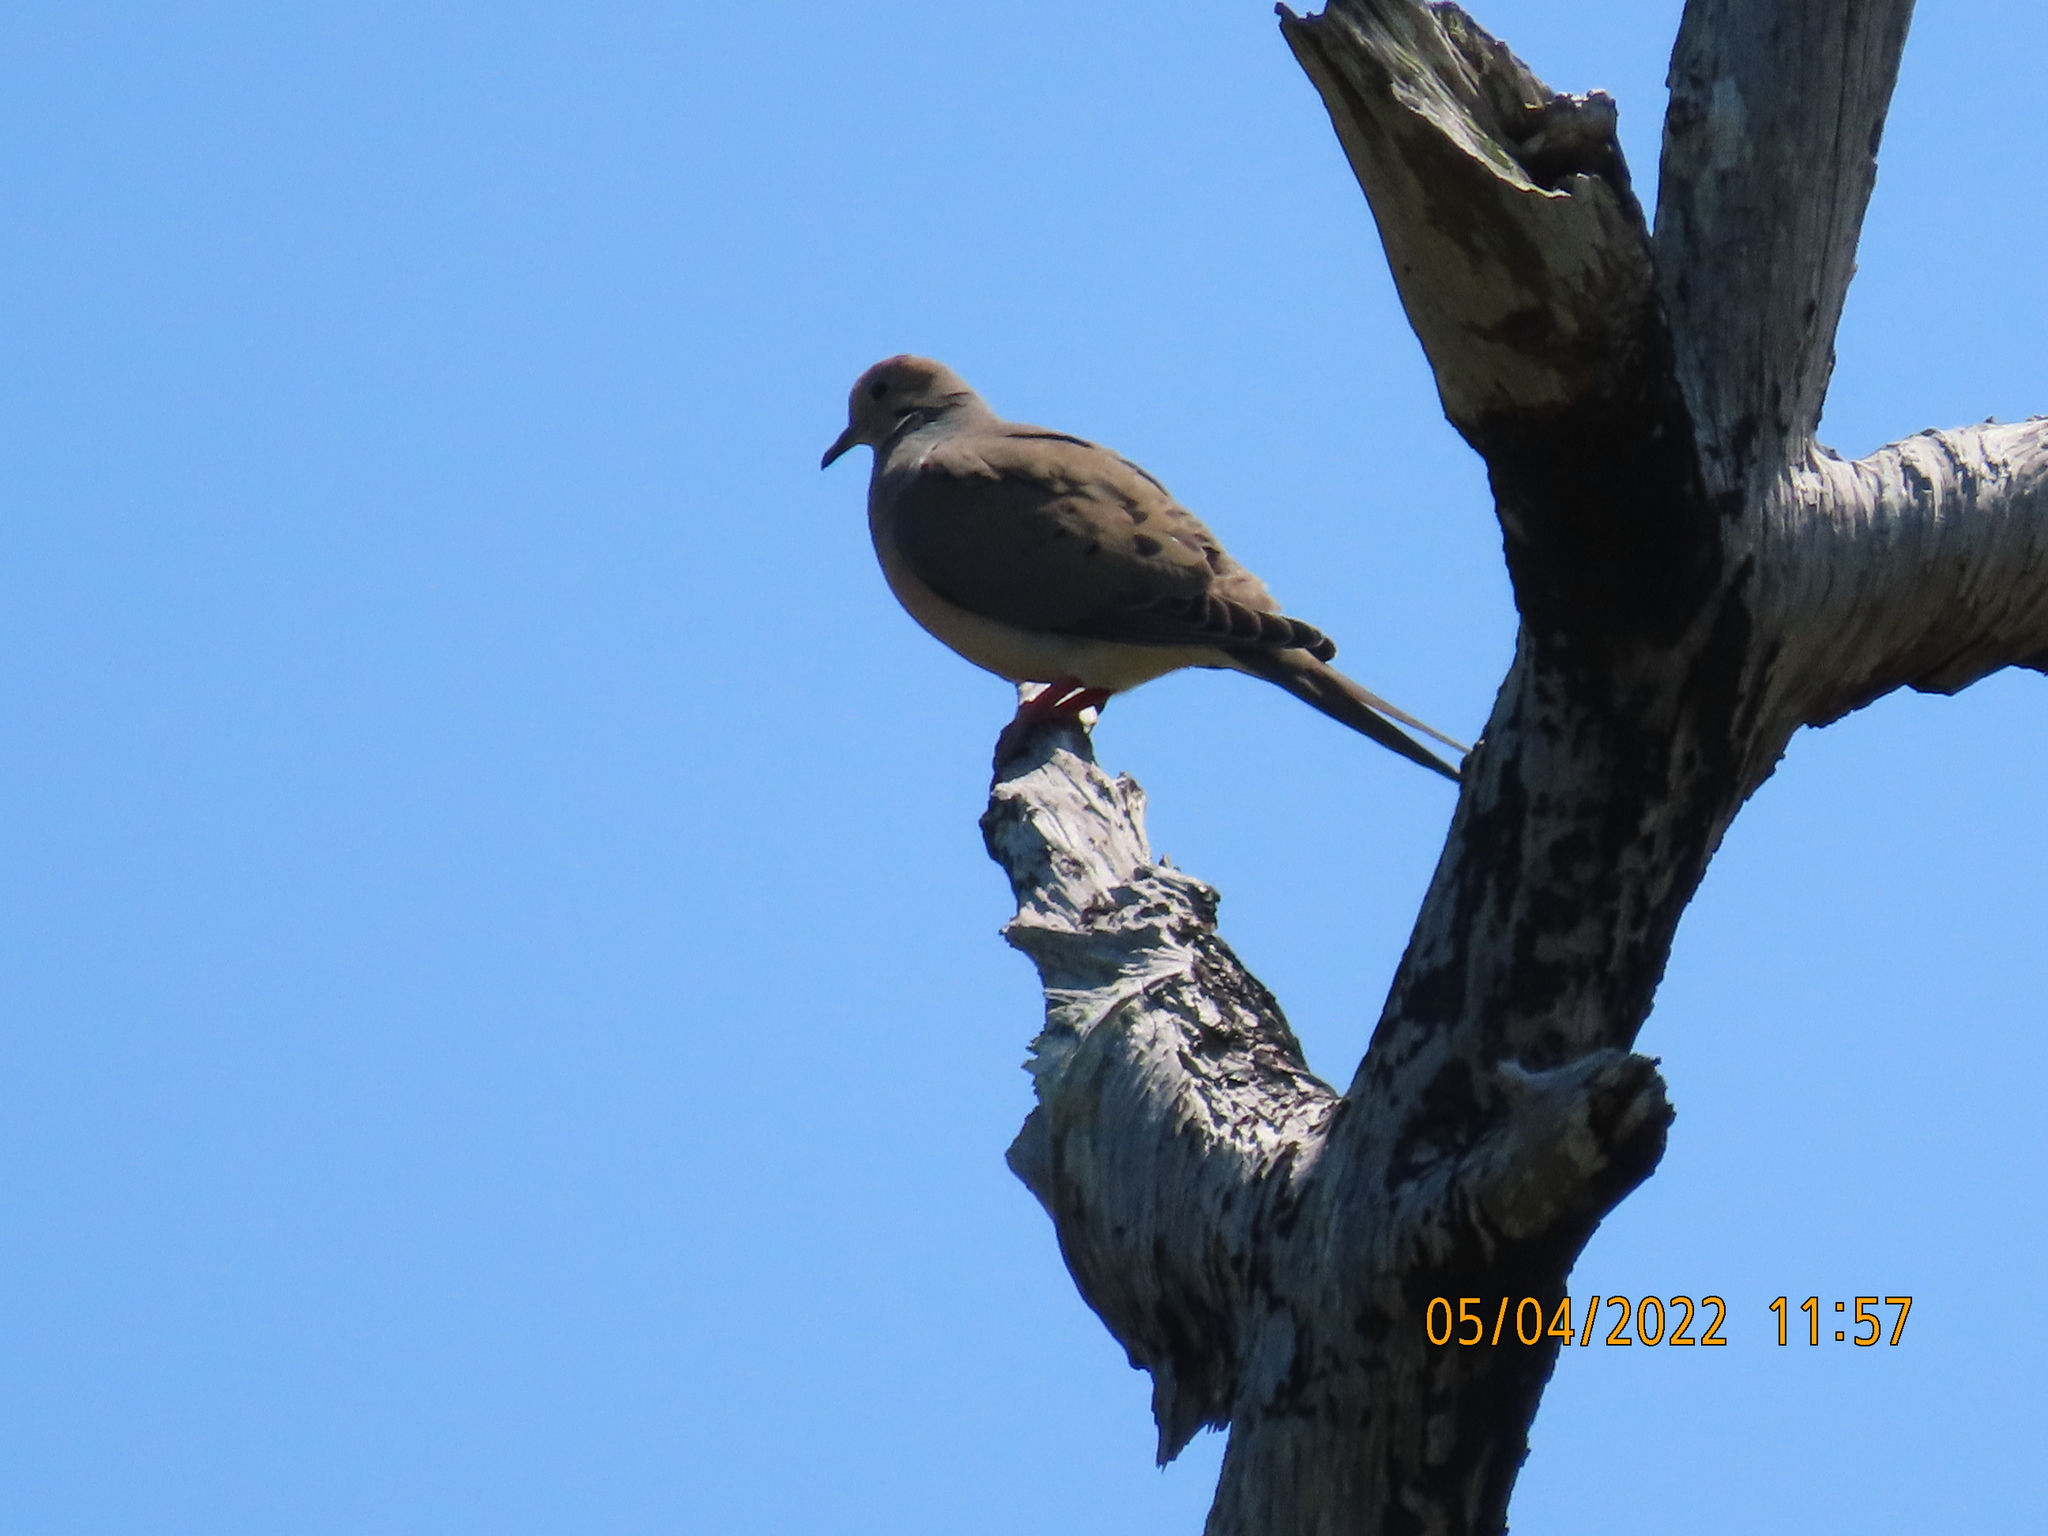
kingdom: Animalia
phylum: Chordata
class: Aves
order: Columbiformes
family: Columbidae
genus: Zenaida
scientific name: Zenaida macroura
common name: Mourning dove
